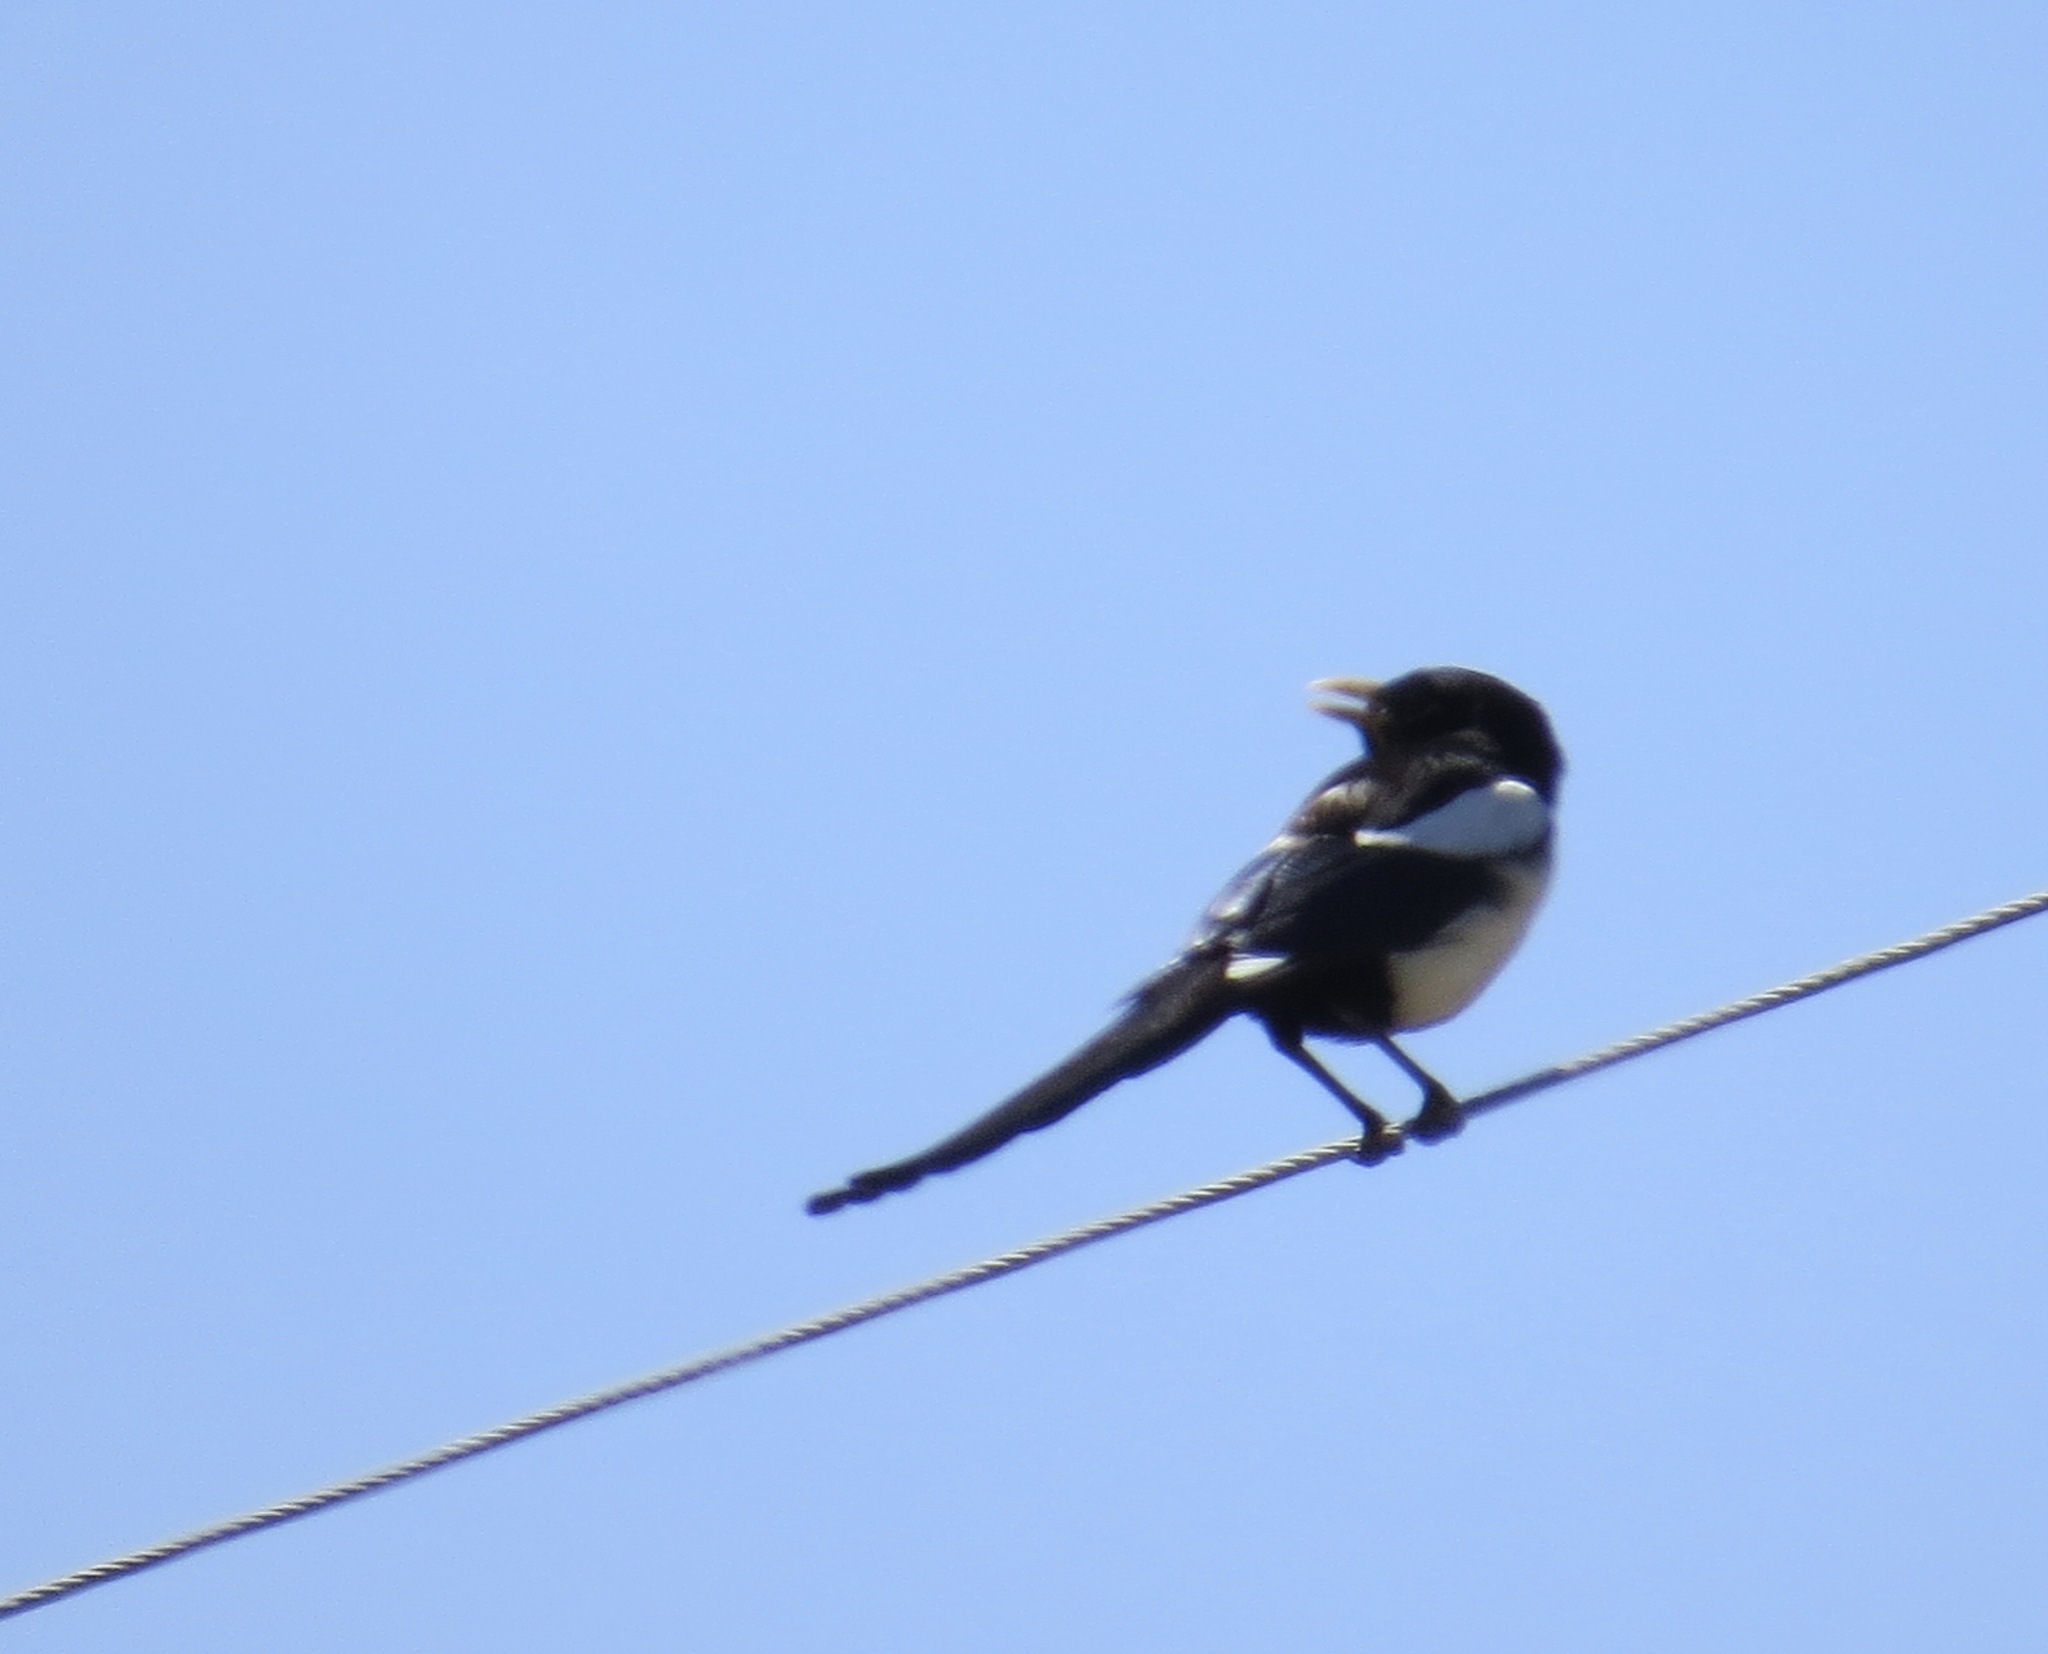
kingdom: Animalia
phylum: Chordata
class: Aves
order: Passeriformes
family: Corvidae
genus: Pica
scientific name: Pica nuttalli
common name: Yellow-billed magpie
